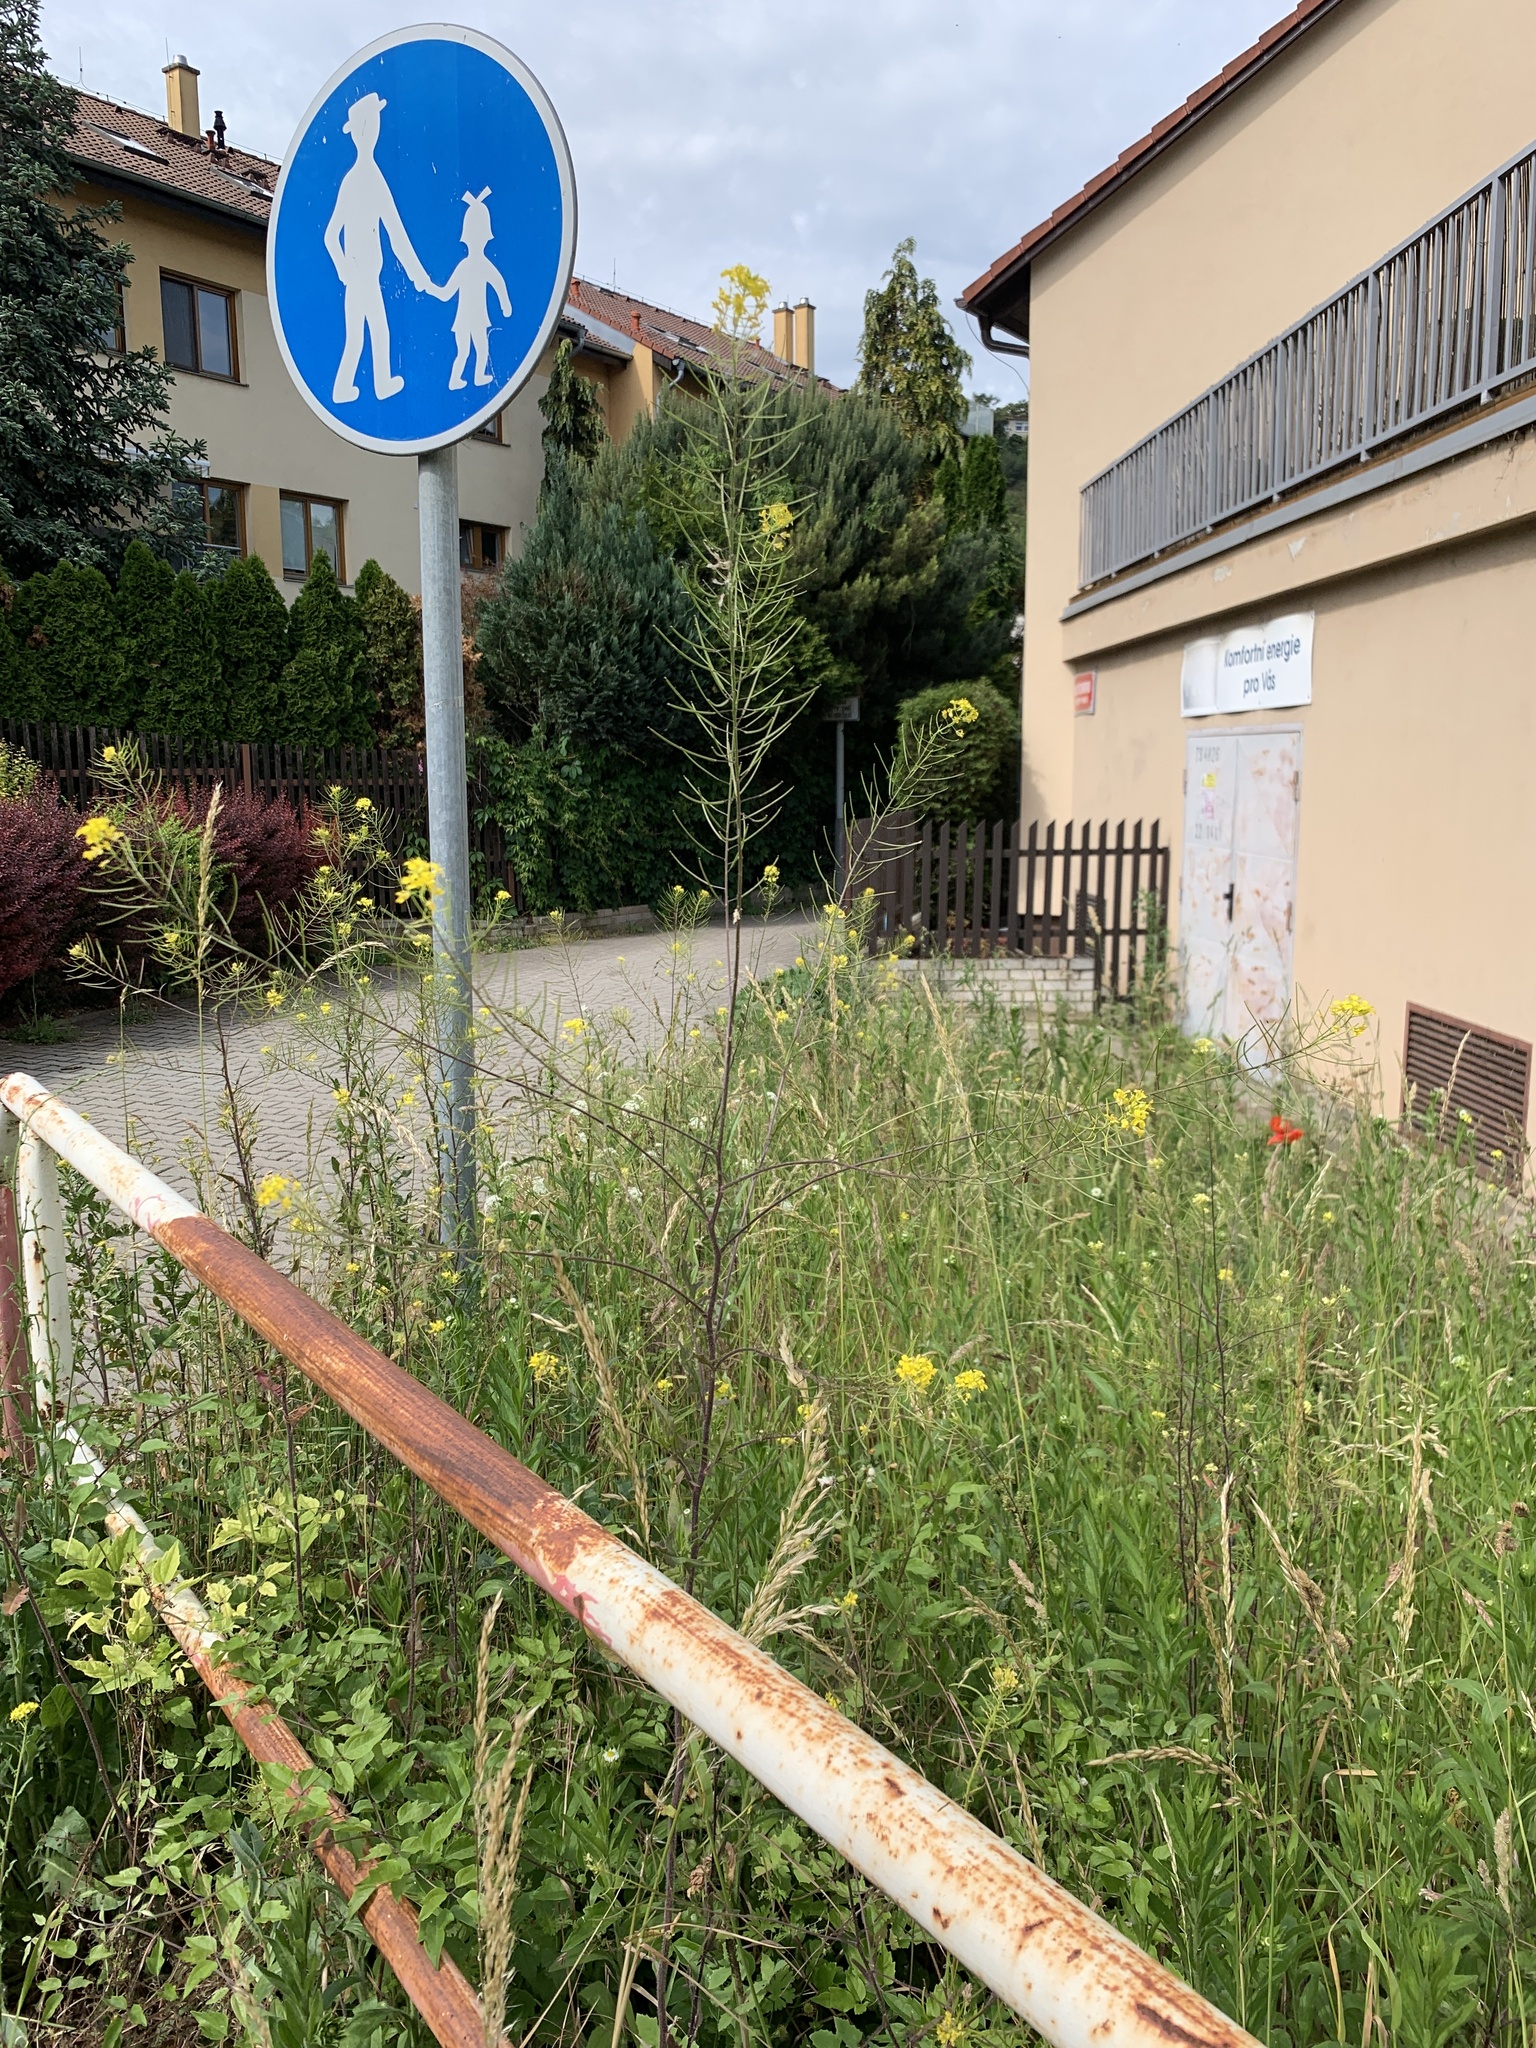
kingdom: Plantae
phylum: Tracheophyta
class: Magnoliopsida
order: Brassicales
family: Brassicaceae
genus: Sisymbrium
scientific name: Sisymbrium loeselii
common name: False london-rocket
